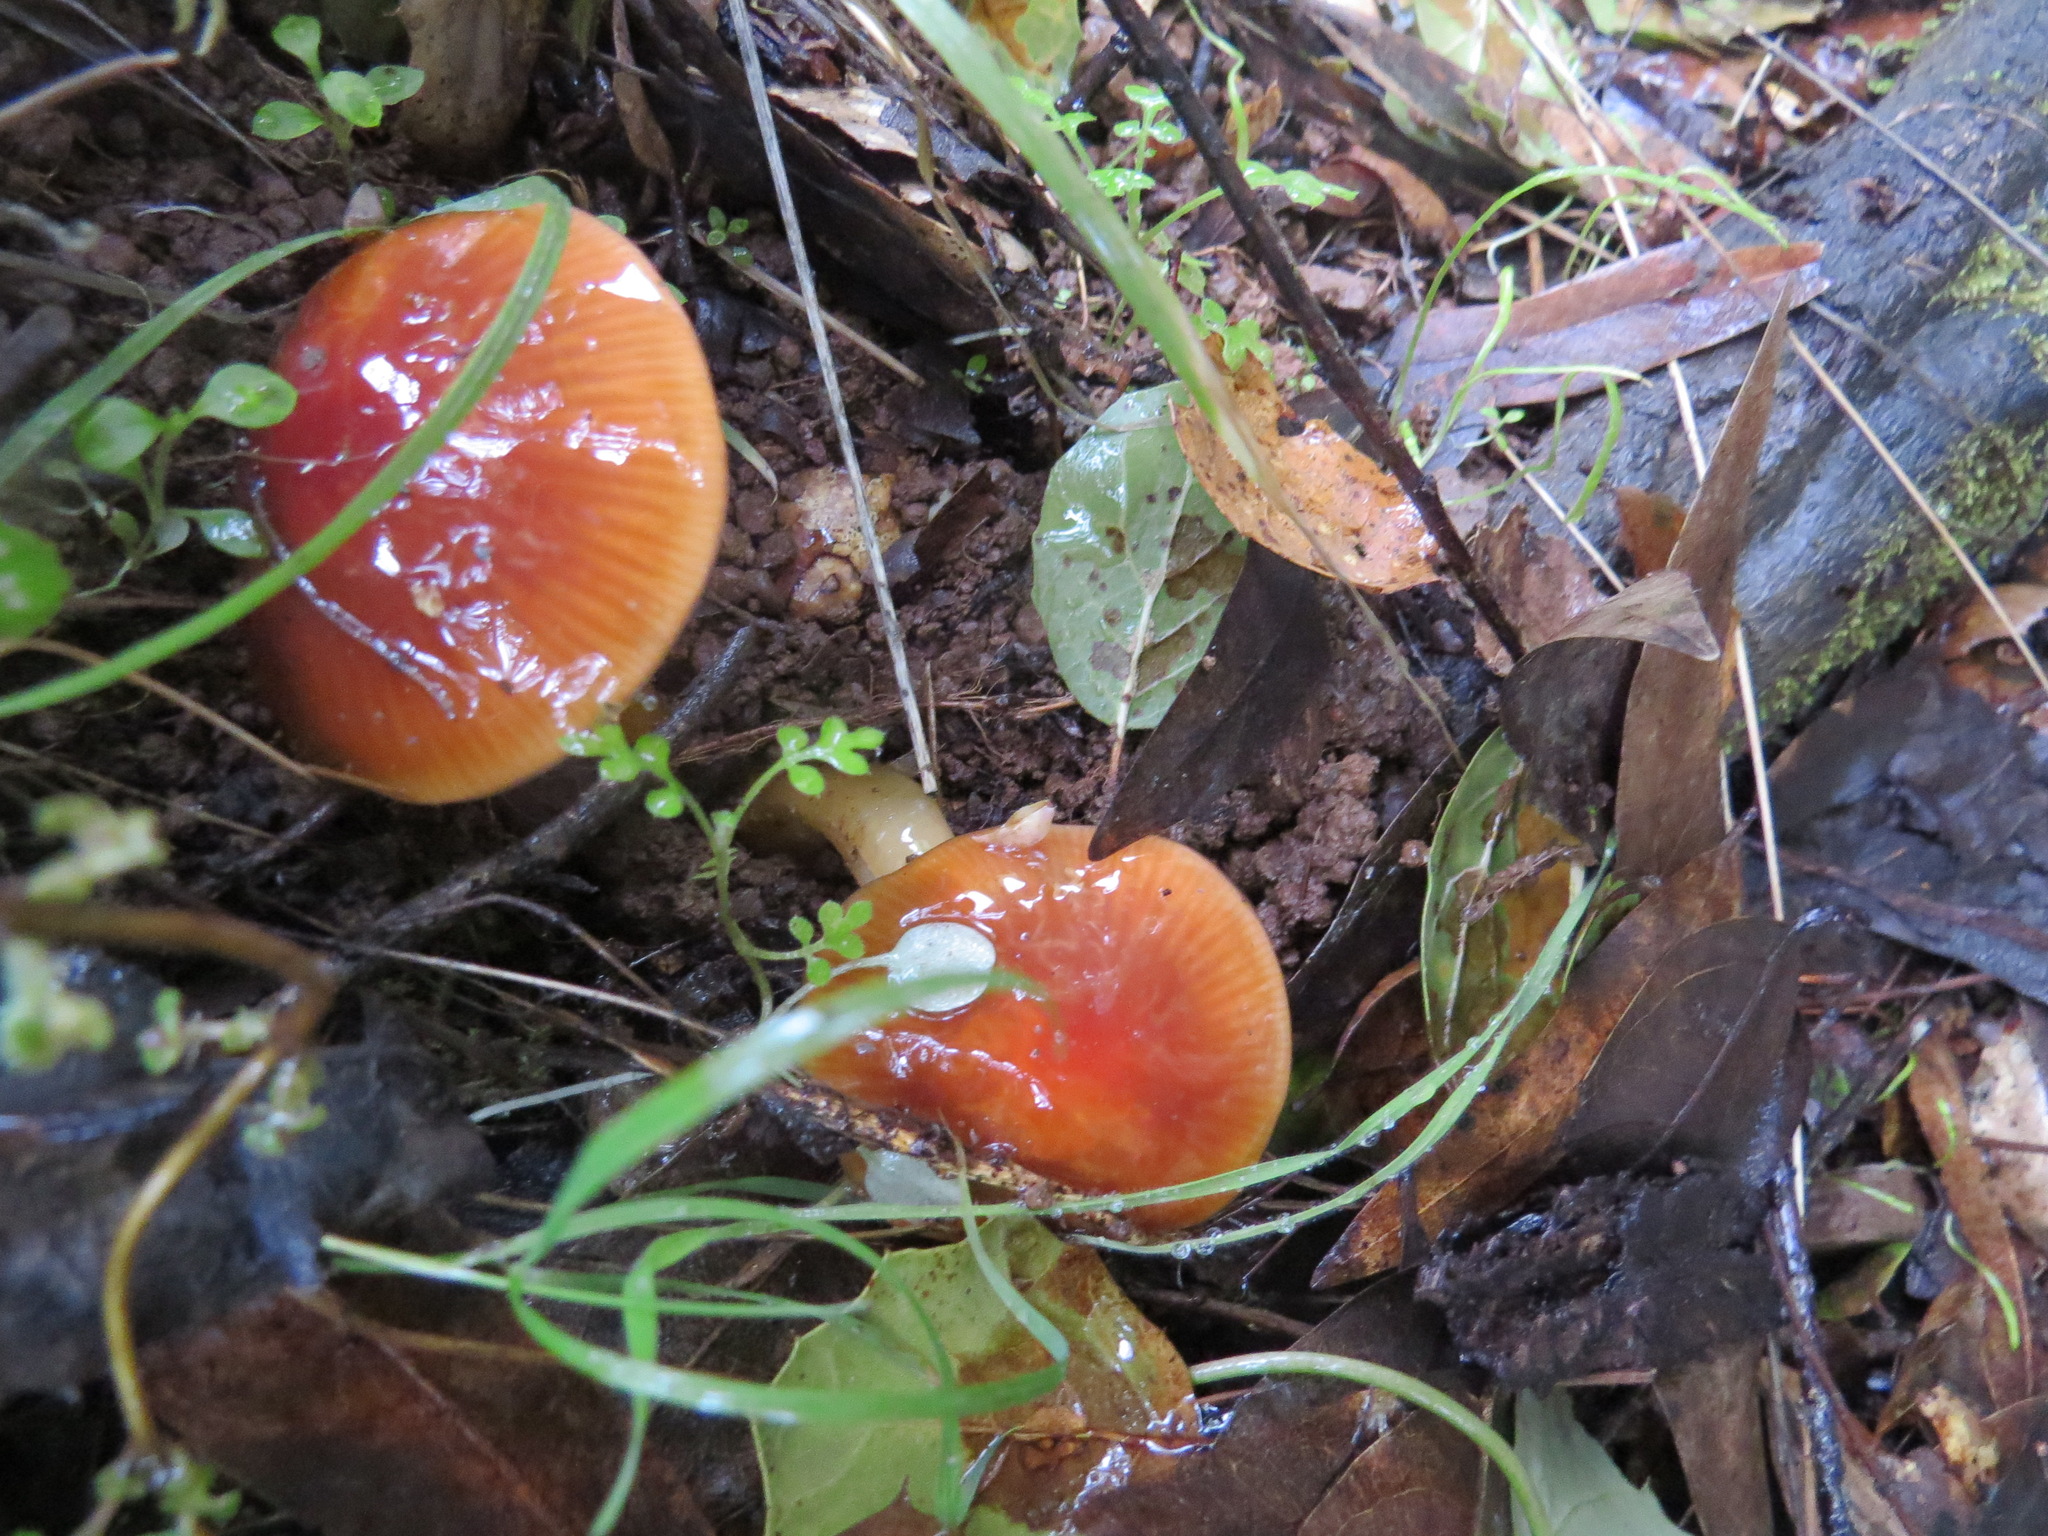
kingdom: Fungi
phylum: Basidiomycota
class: Agaricomycetes
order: Agaricales
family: Hygrophoraceae
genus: Gliophorus
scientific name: Gliophorus psittacinus
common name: Parrot wax-cap
